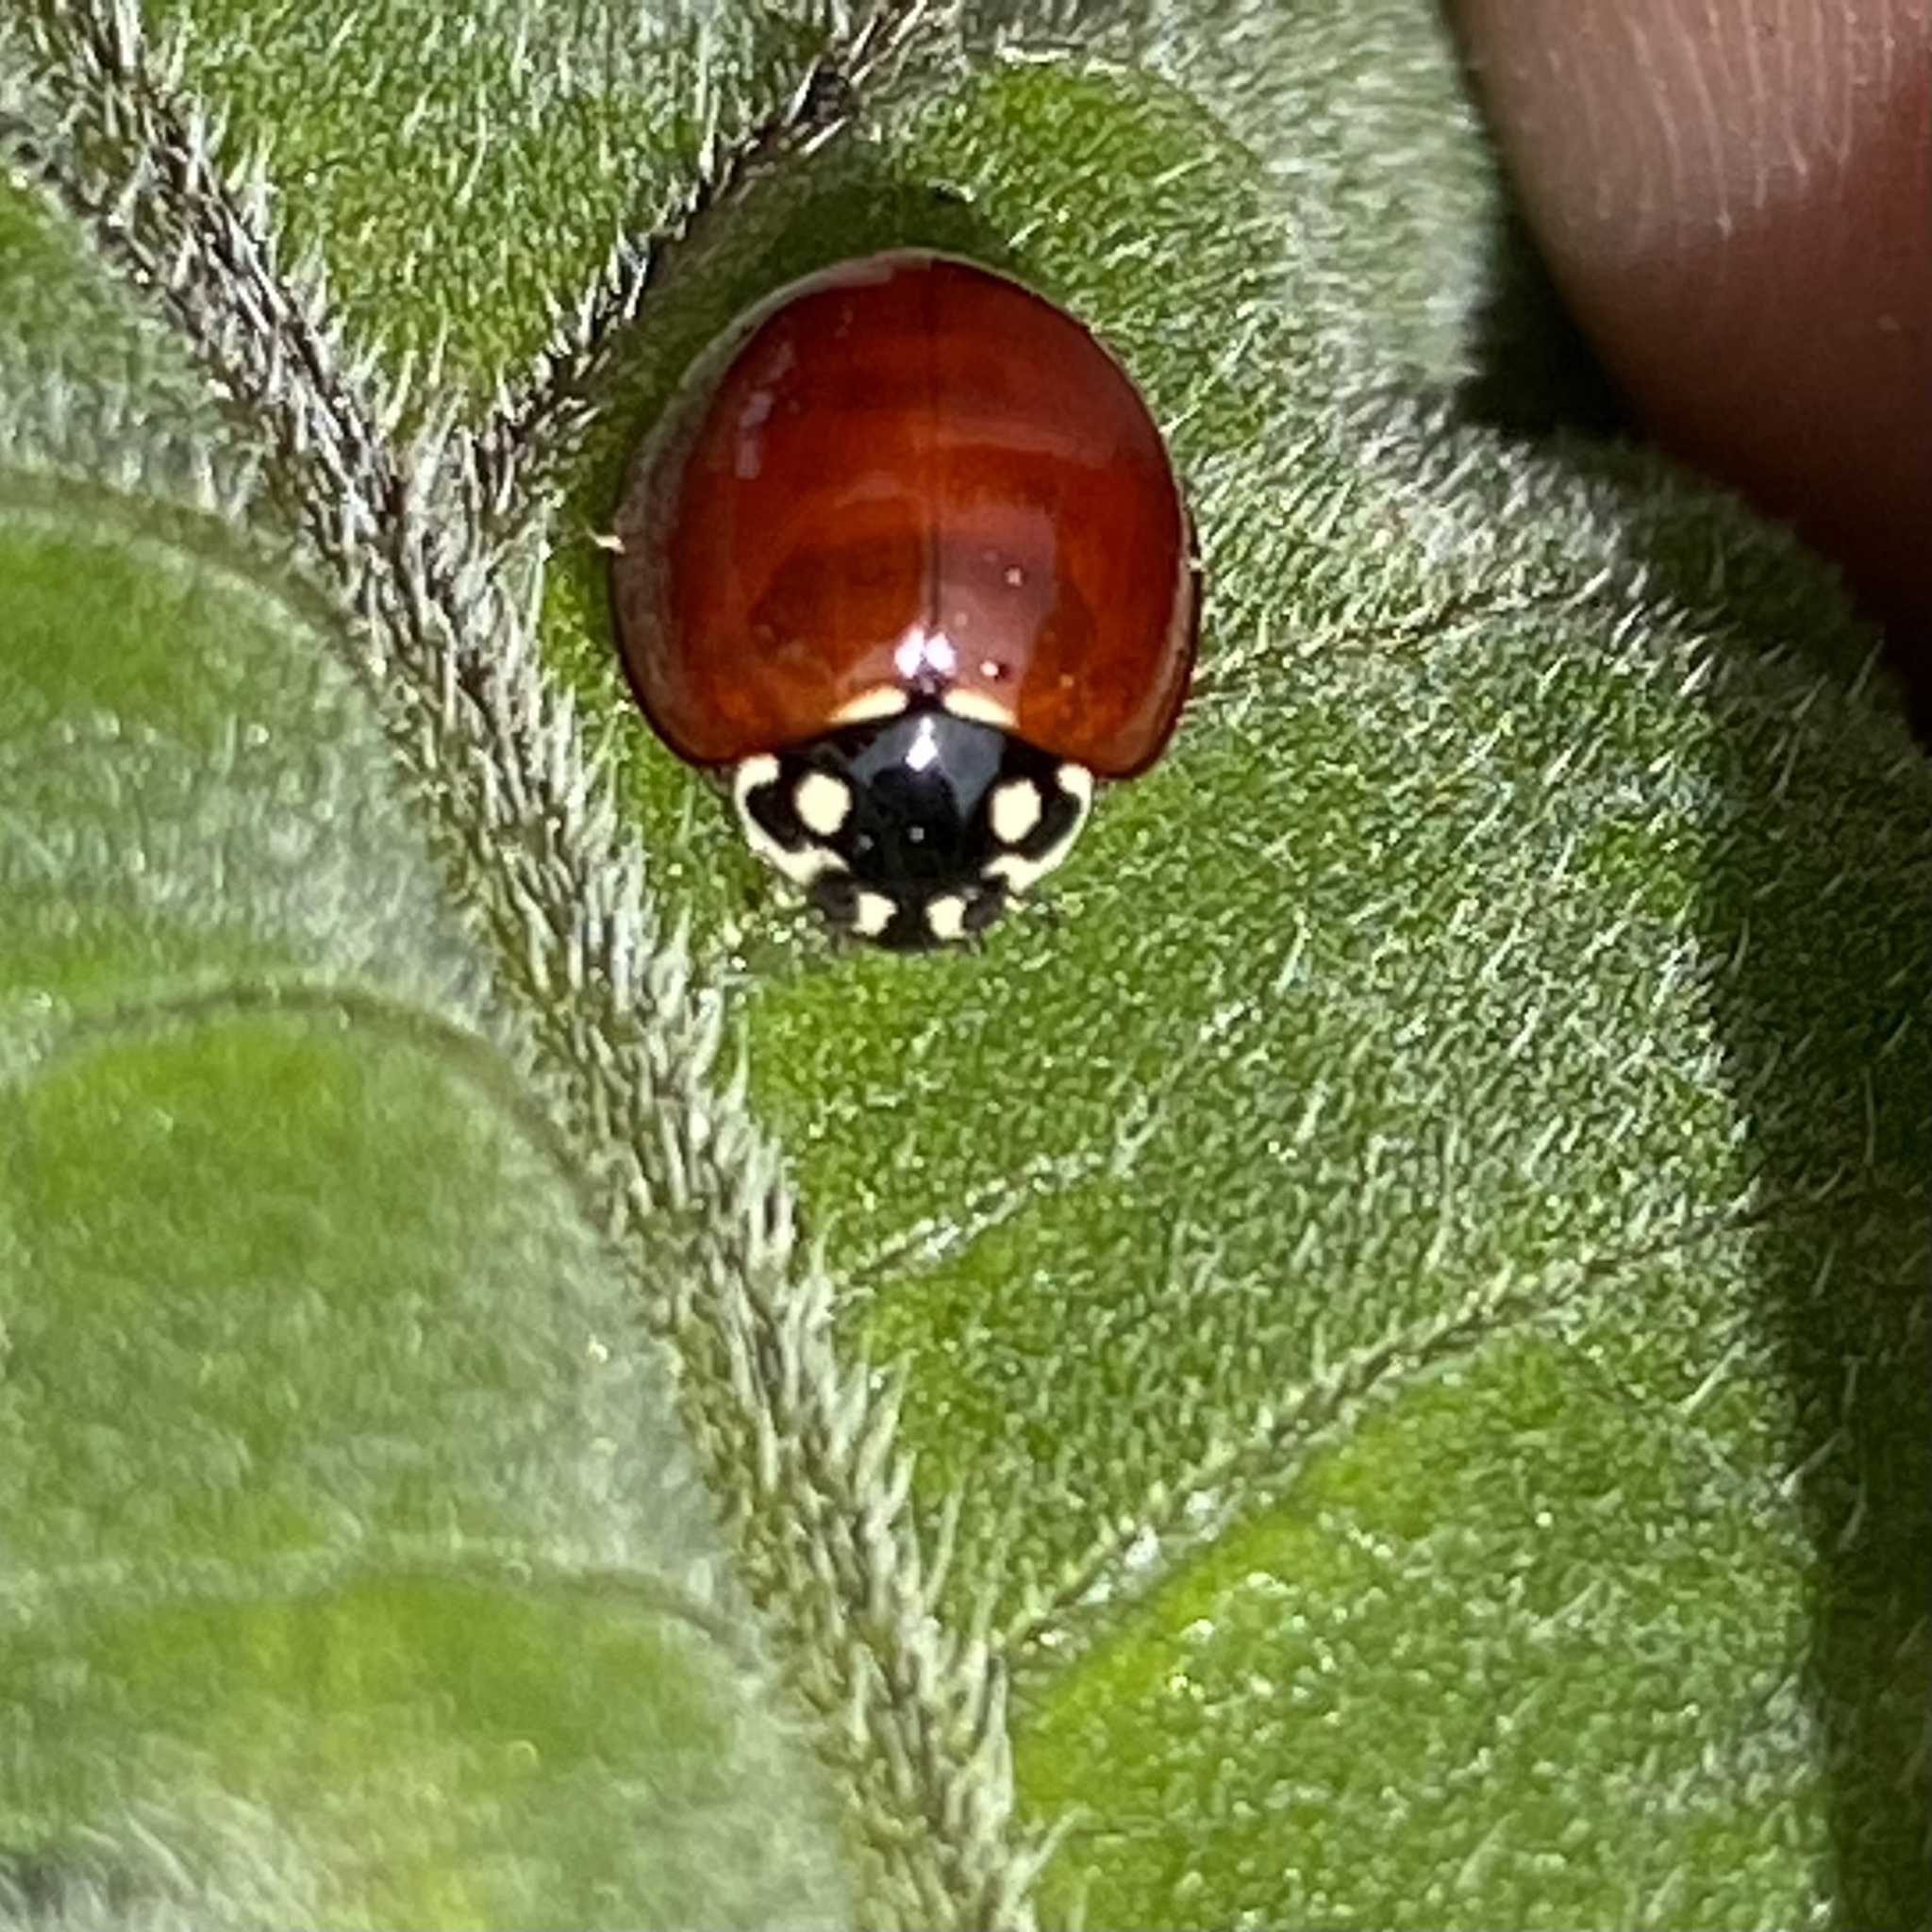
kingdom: Animalia
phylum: Arthropoda
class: Insecta
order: Coleoptera
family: Coccinellidae
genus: Cycloneda
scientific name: Cycloneda sanguinea
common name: Ladybird beetle
